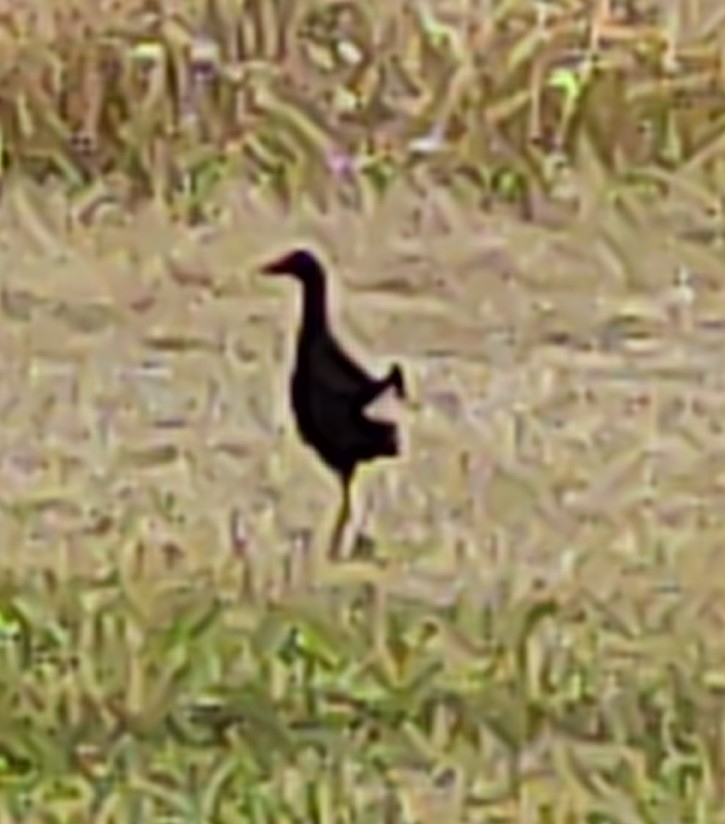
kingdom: Animalia
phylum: Chordata
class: Aves
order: Gruiformes
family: Rallidae
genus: Porphyrio
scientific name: Porphyrio melanotus
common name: Australasian swamphen
